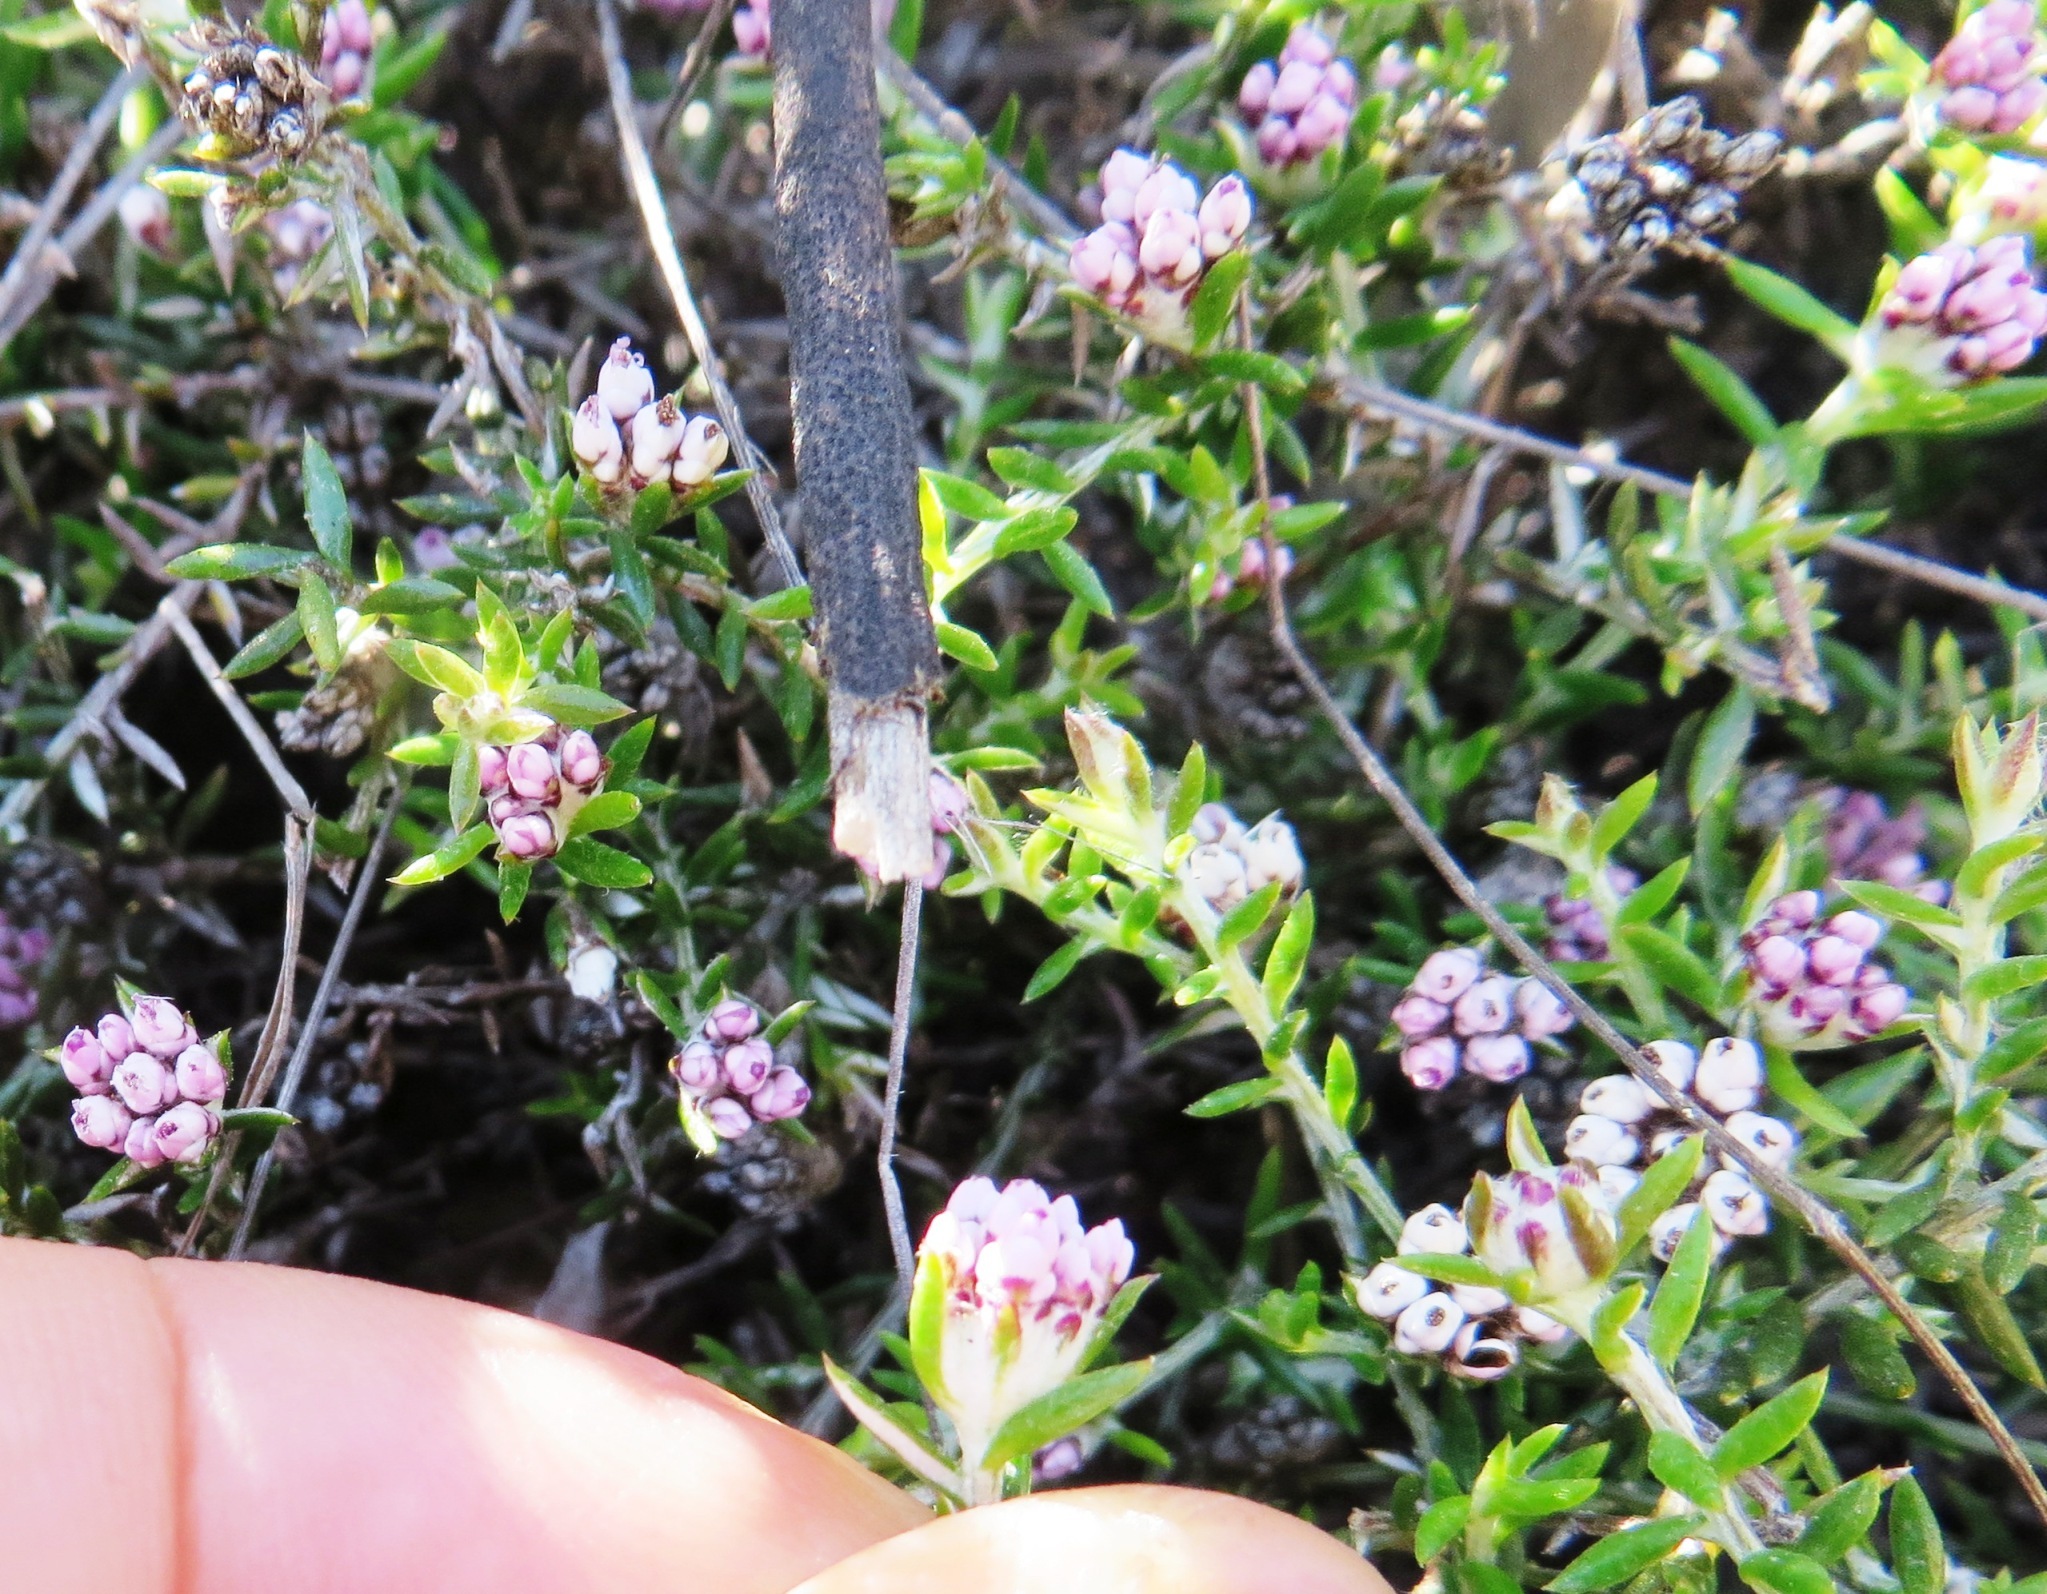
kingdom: Plantae
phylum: Tracheophyta
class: Magnoliopsida
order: Asterales
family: Asteraceae
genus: Metalasia
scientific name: Metalasia serrulata
